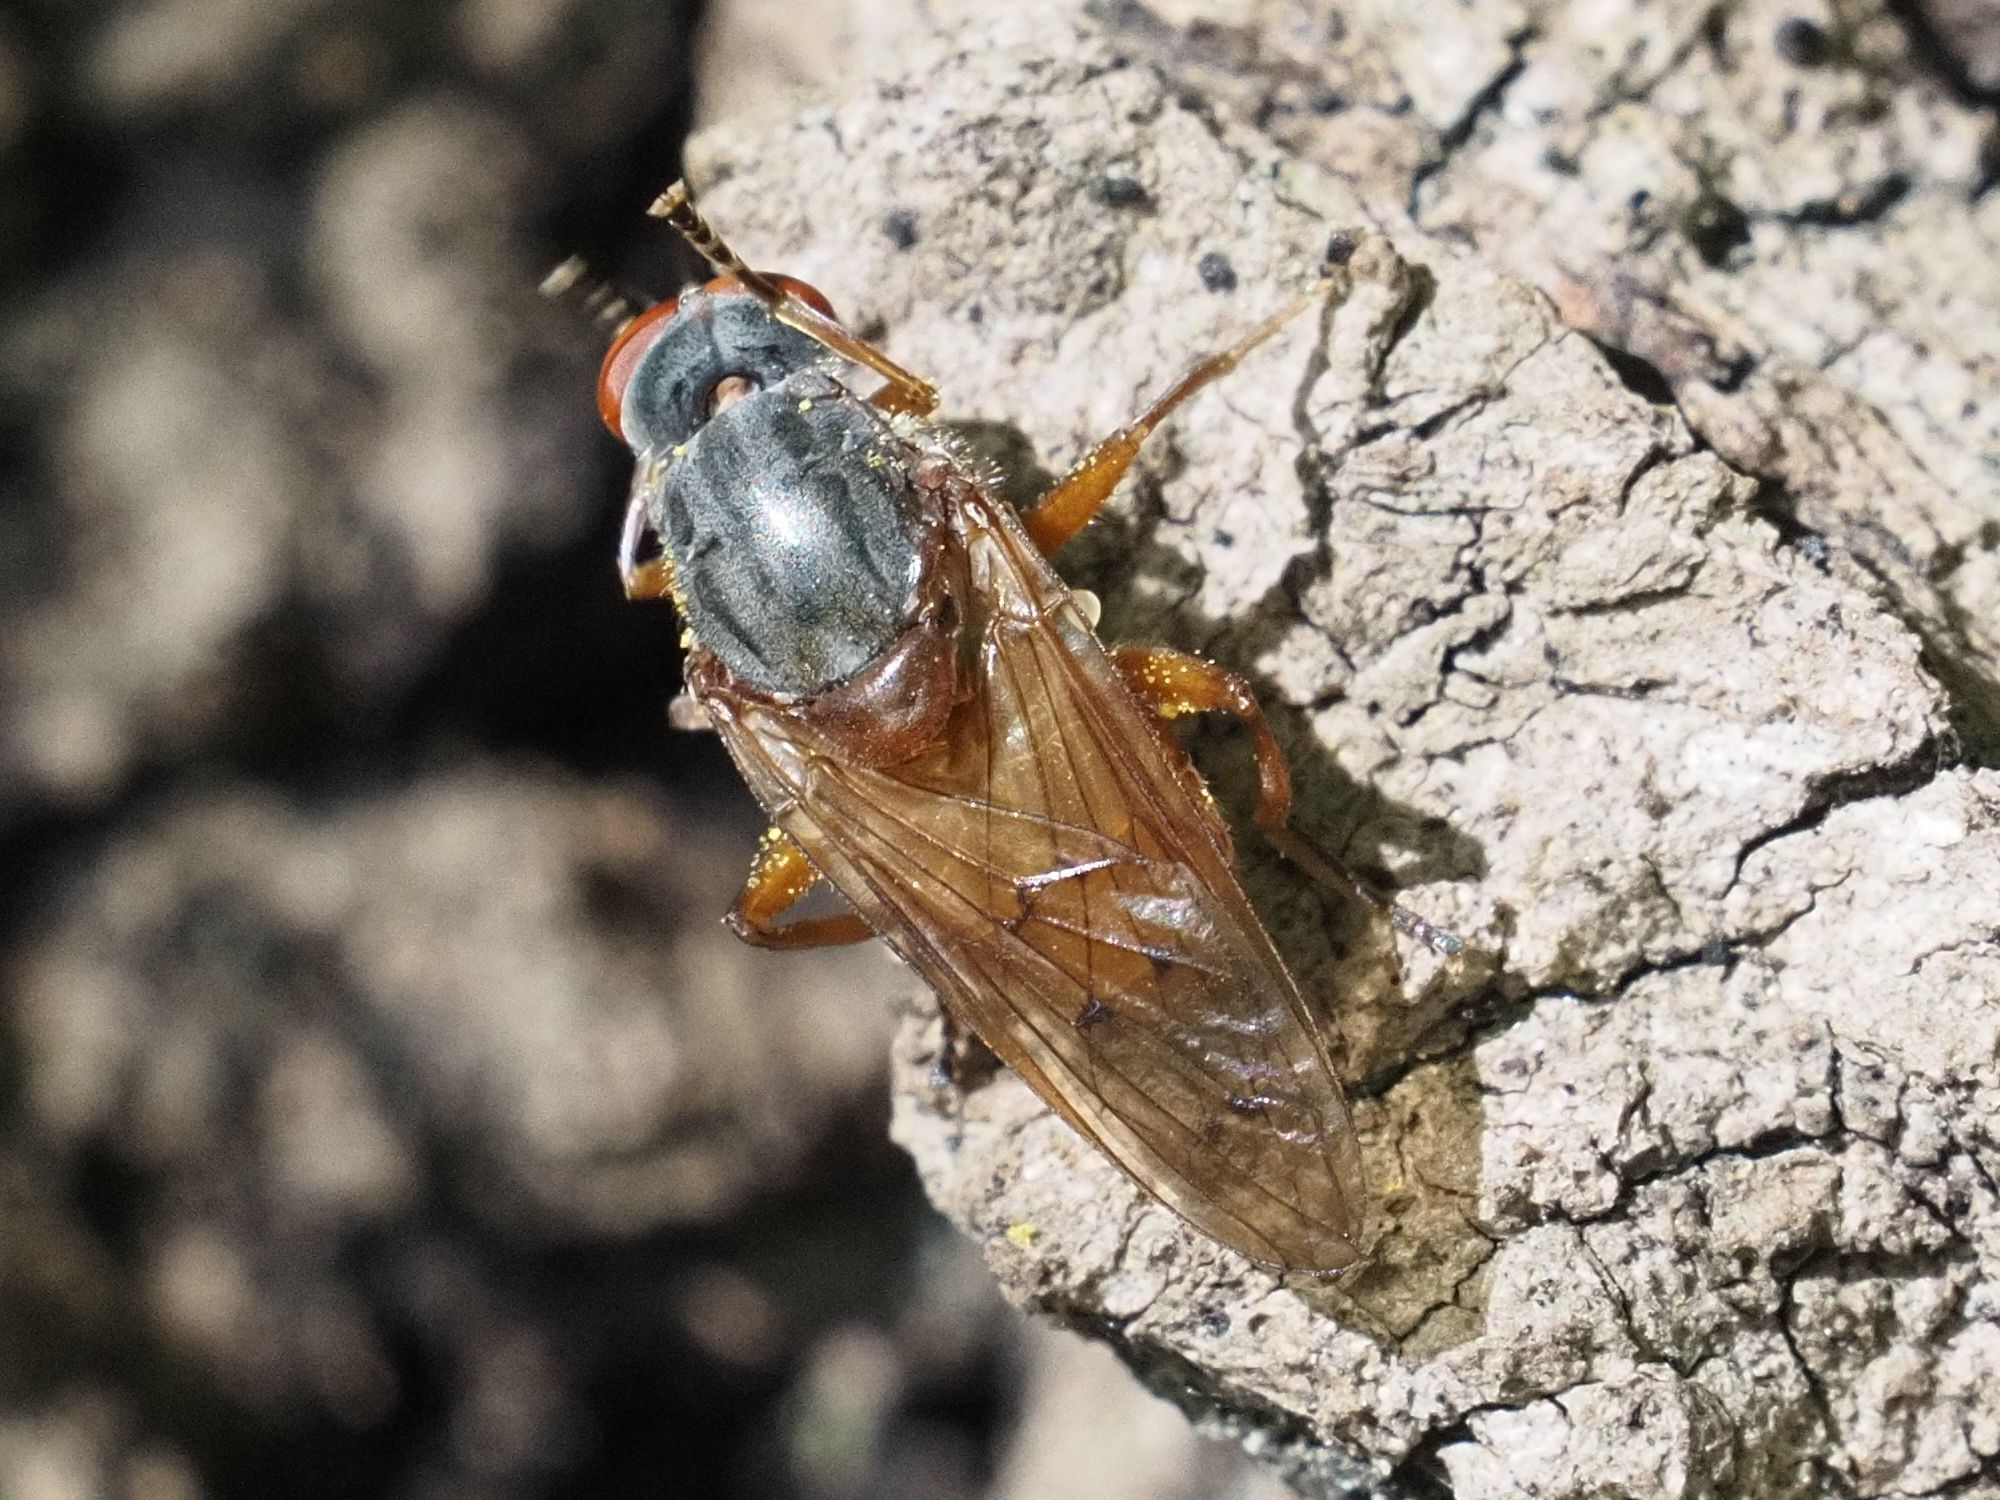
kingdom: Animalia
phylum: Arthropoda
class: Insecta
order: Diptera
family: Syrphidae
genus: Brachyopa
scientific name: Brachyopa maculipennis
